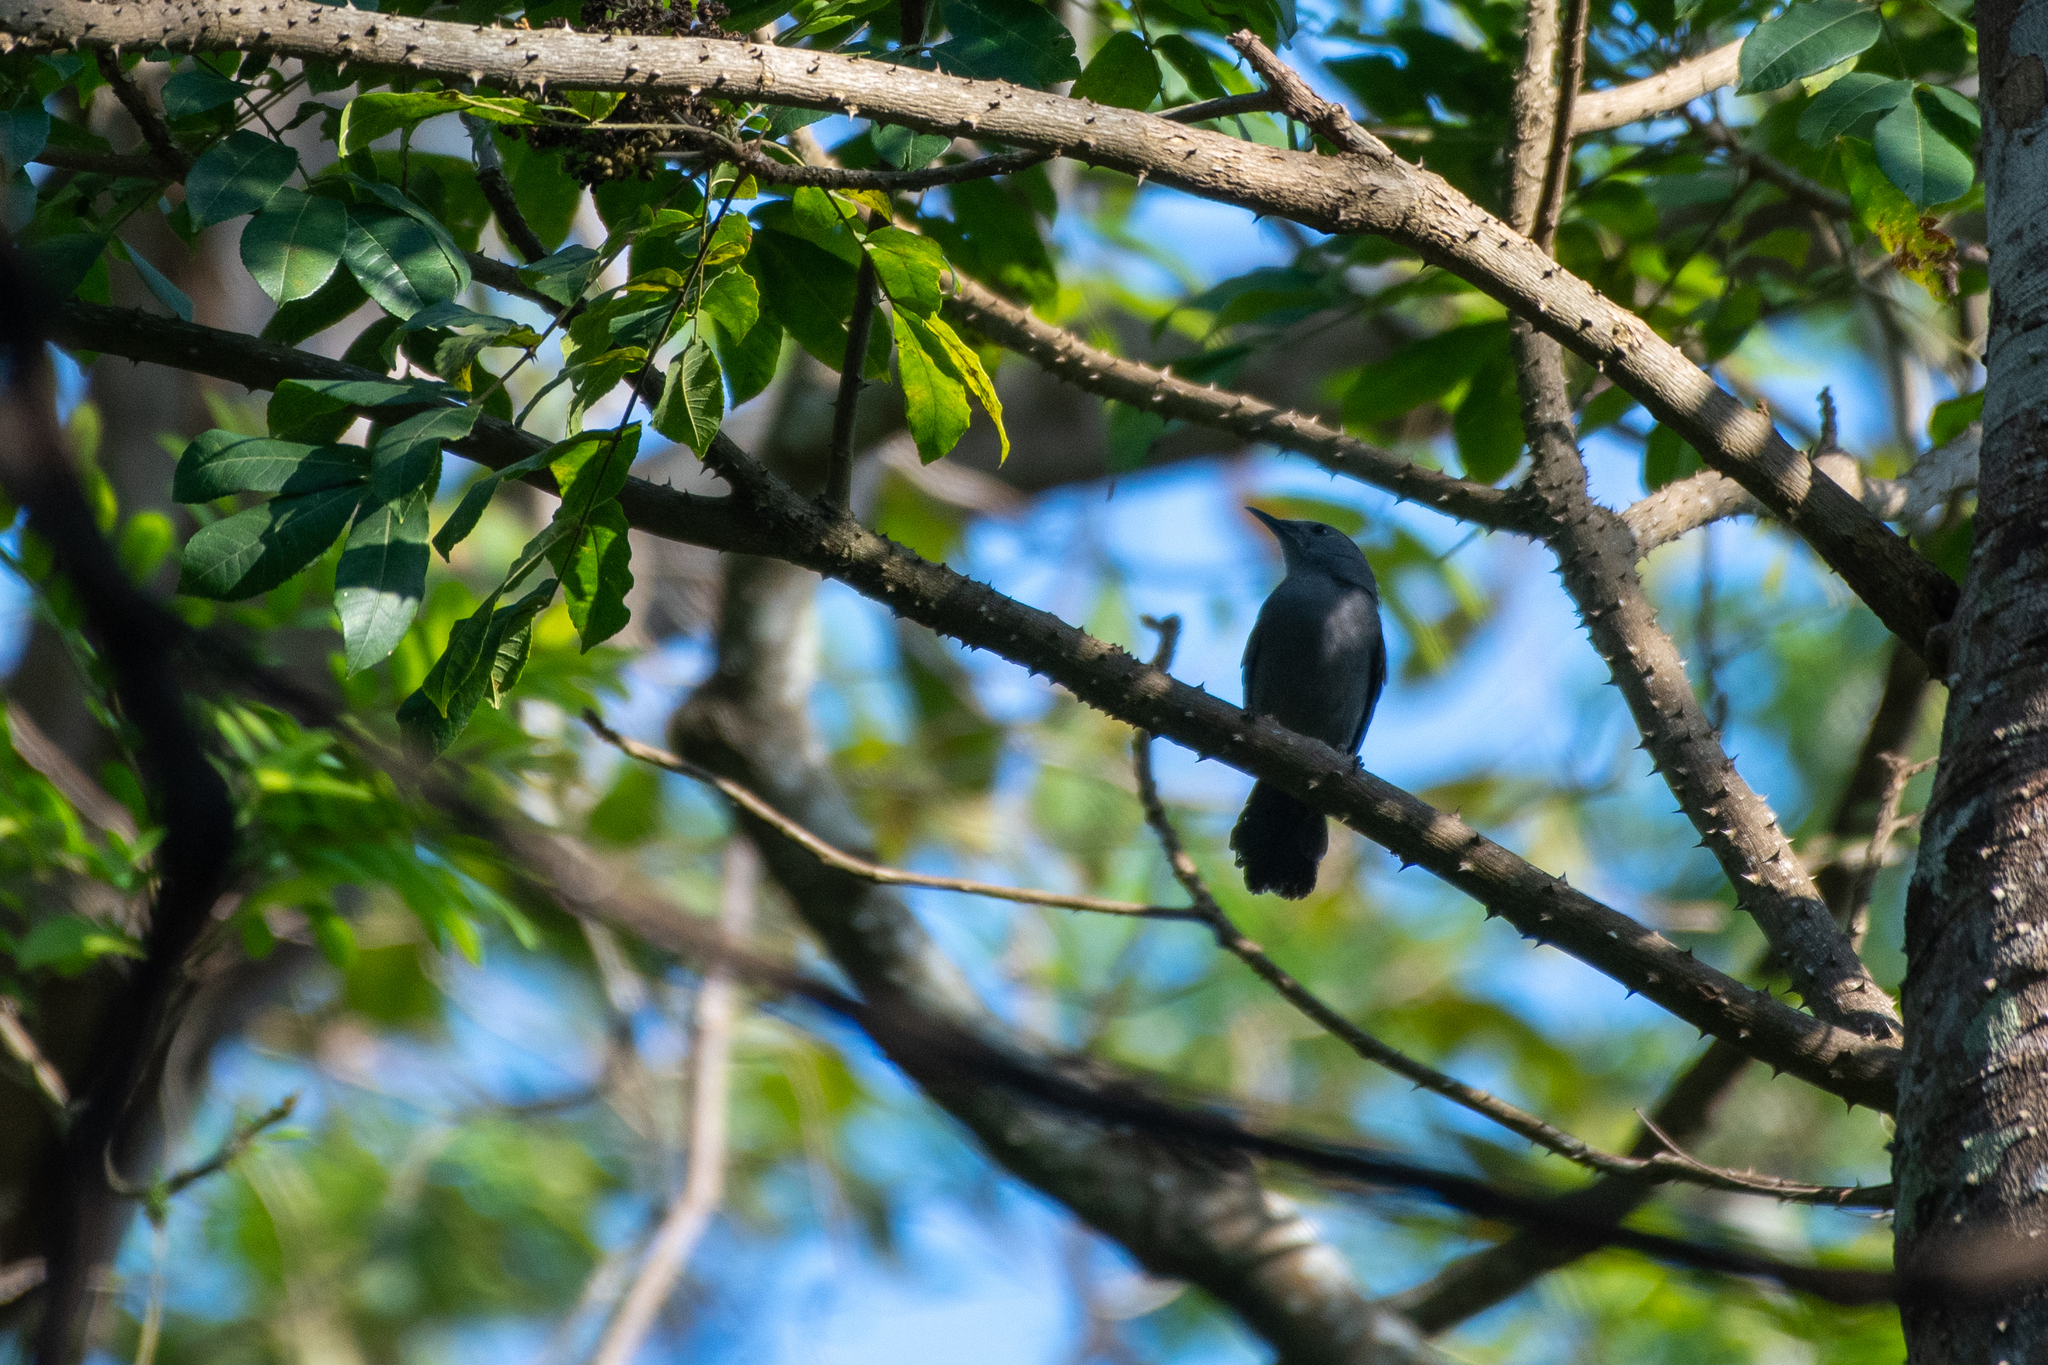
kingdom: Animalia
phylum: Chordata
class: Aves
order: Passeriformes
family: Mimidae
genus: Dumetella
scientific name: Dumetella carolinensis
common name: Gray catbird
